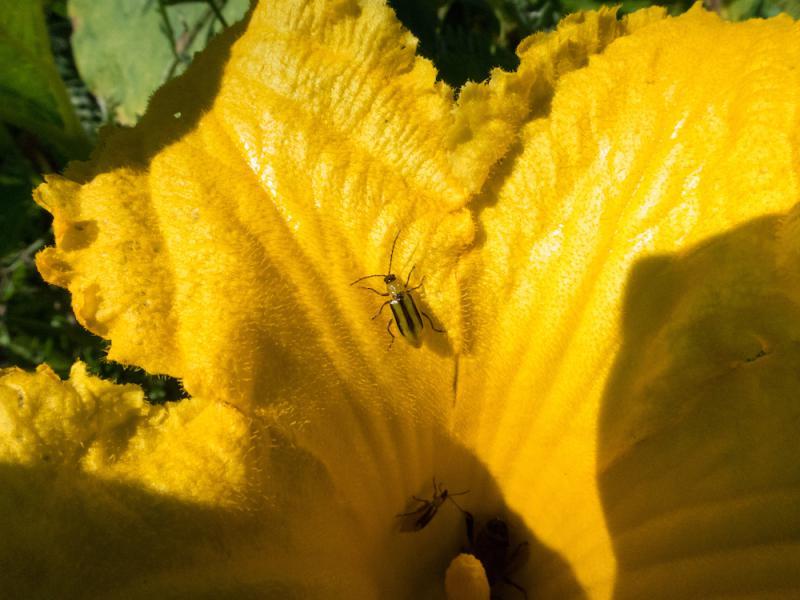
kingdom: Animalia
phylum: Arthropoda
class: Insecta
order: Coleoptera
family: Chrysomelidae
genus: Diabrotica
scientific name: Diabrotica virgifera
